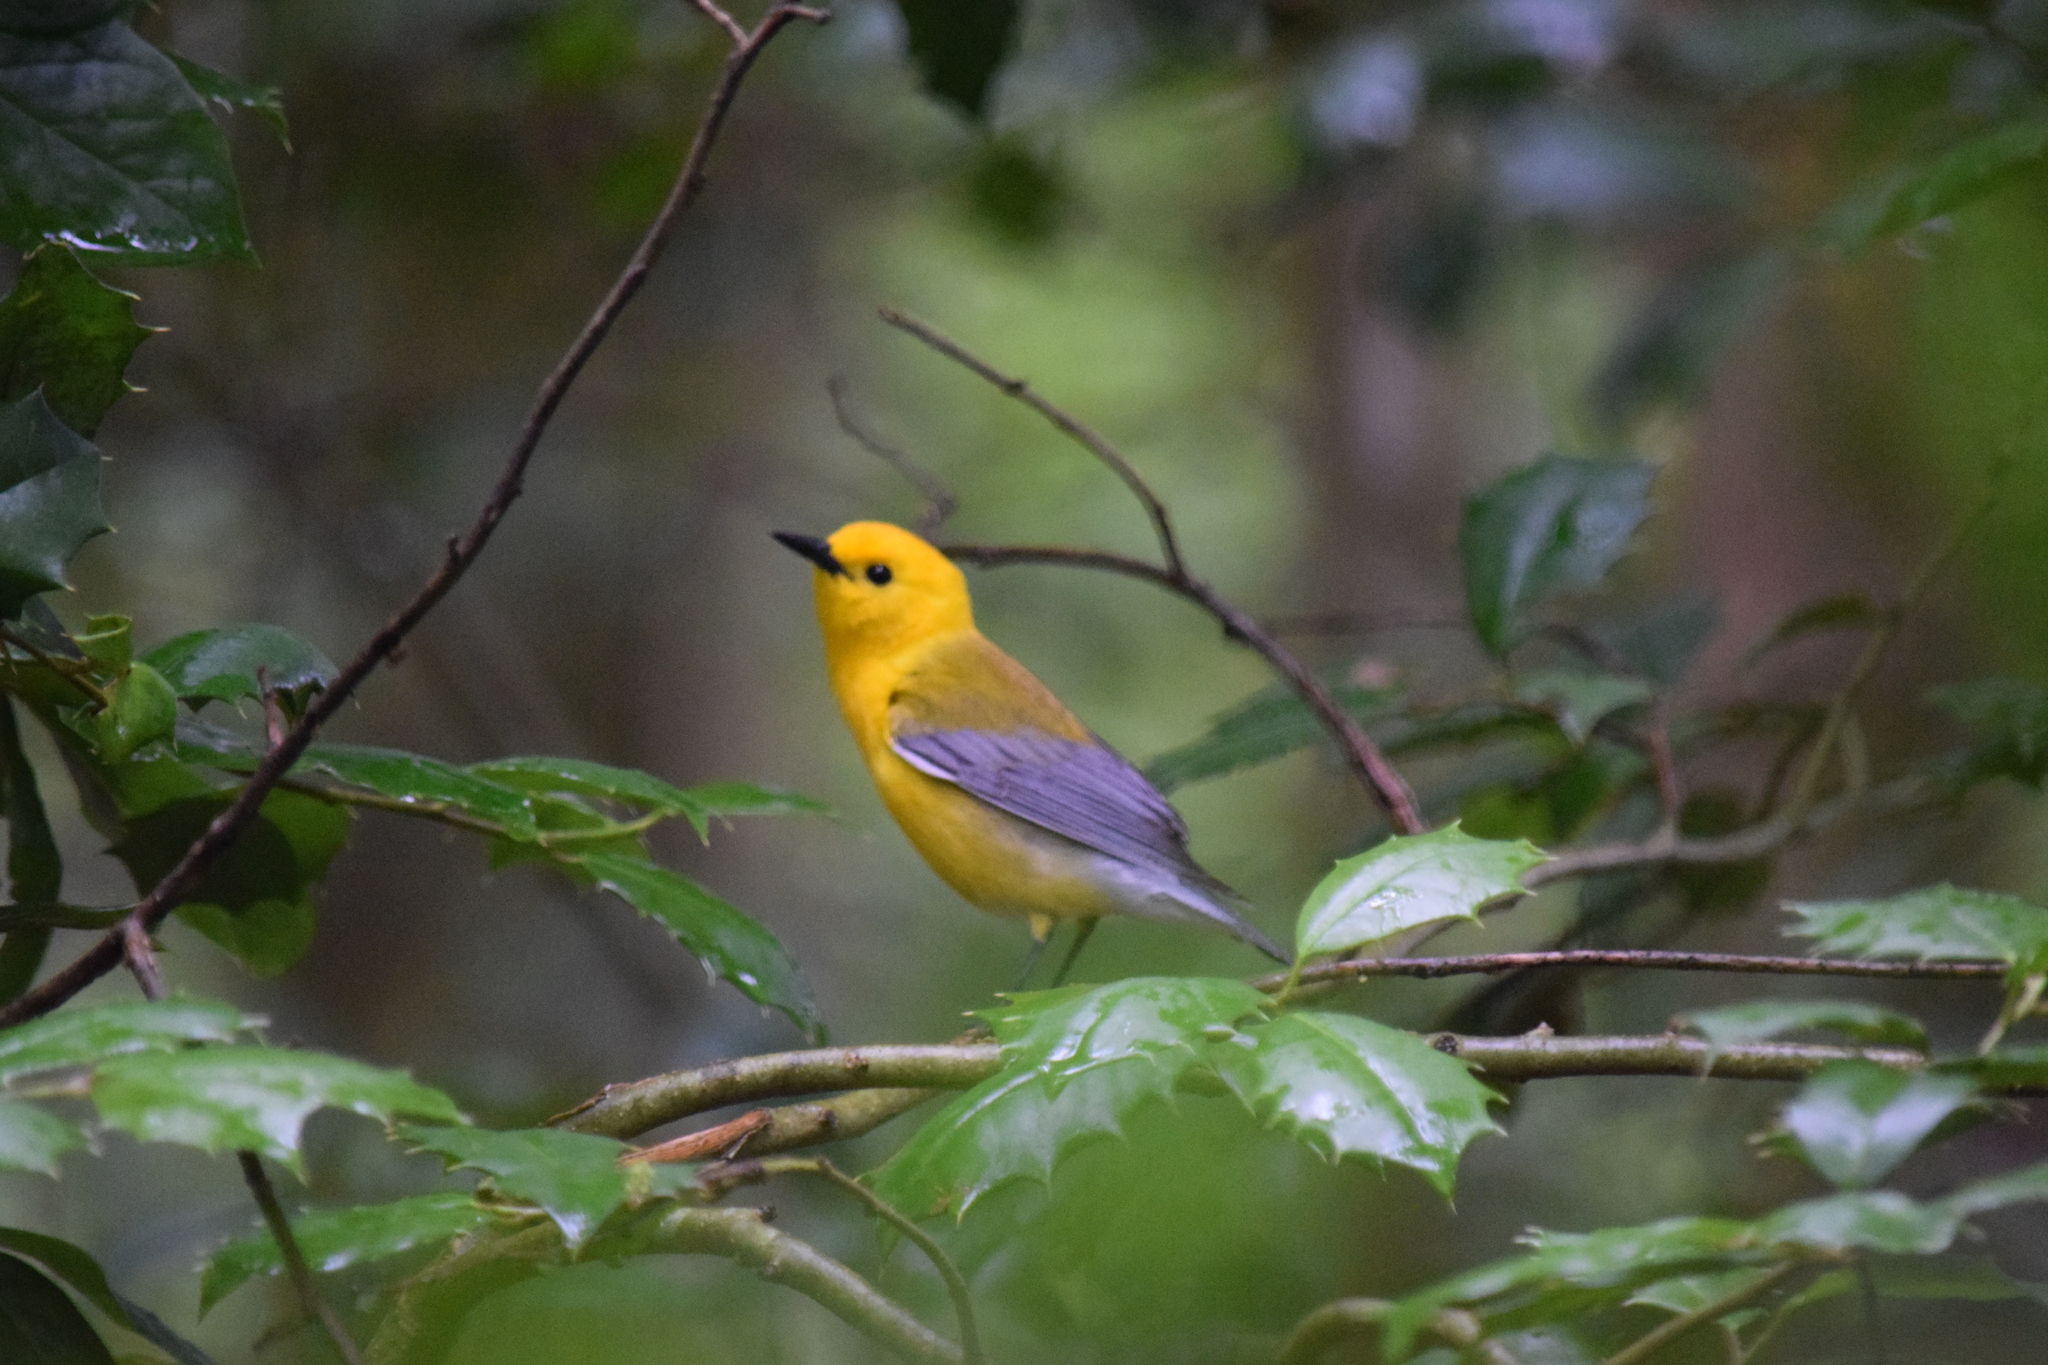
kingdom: Animalia
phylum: Chordata
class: Aves
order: Passeriformes
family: Parulidae
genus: Protonotaria
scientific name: Protonotaria citrea
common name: Prothonotary warbler
